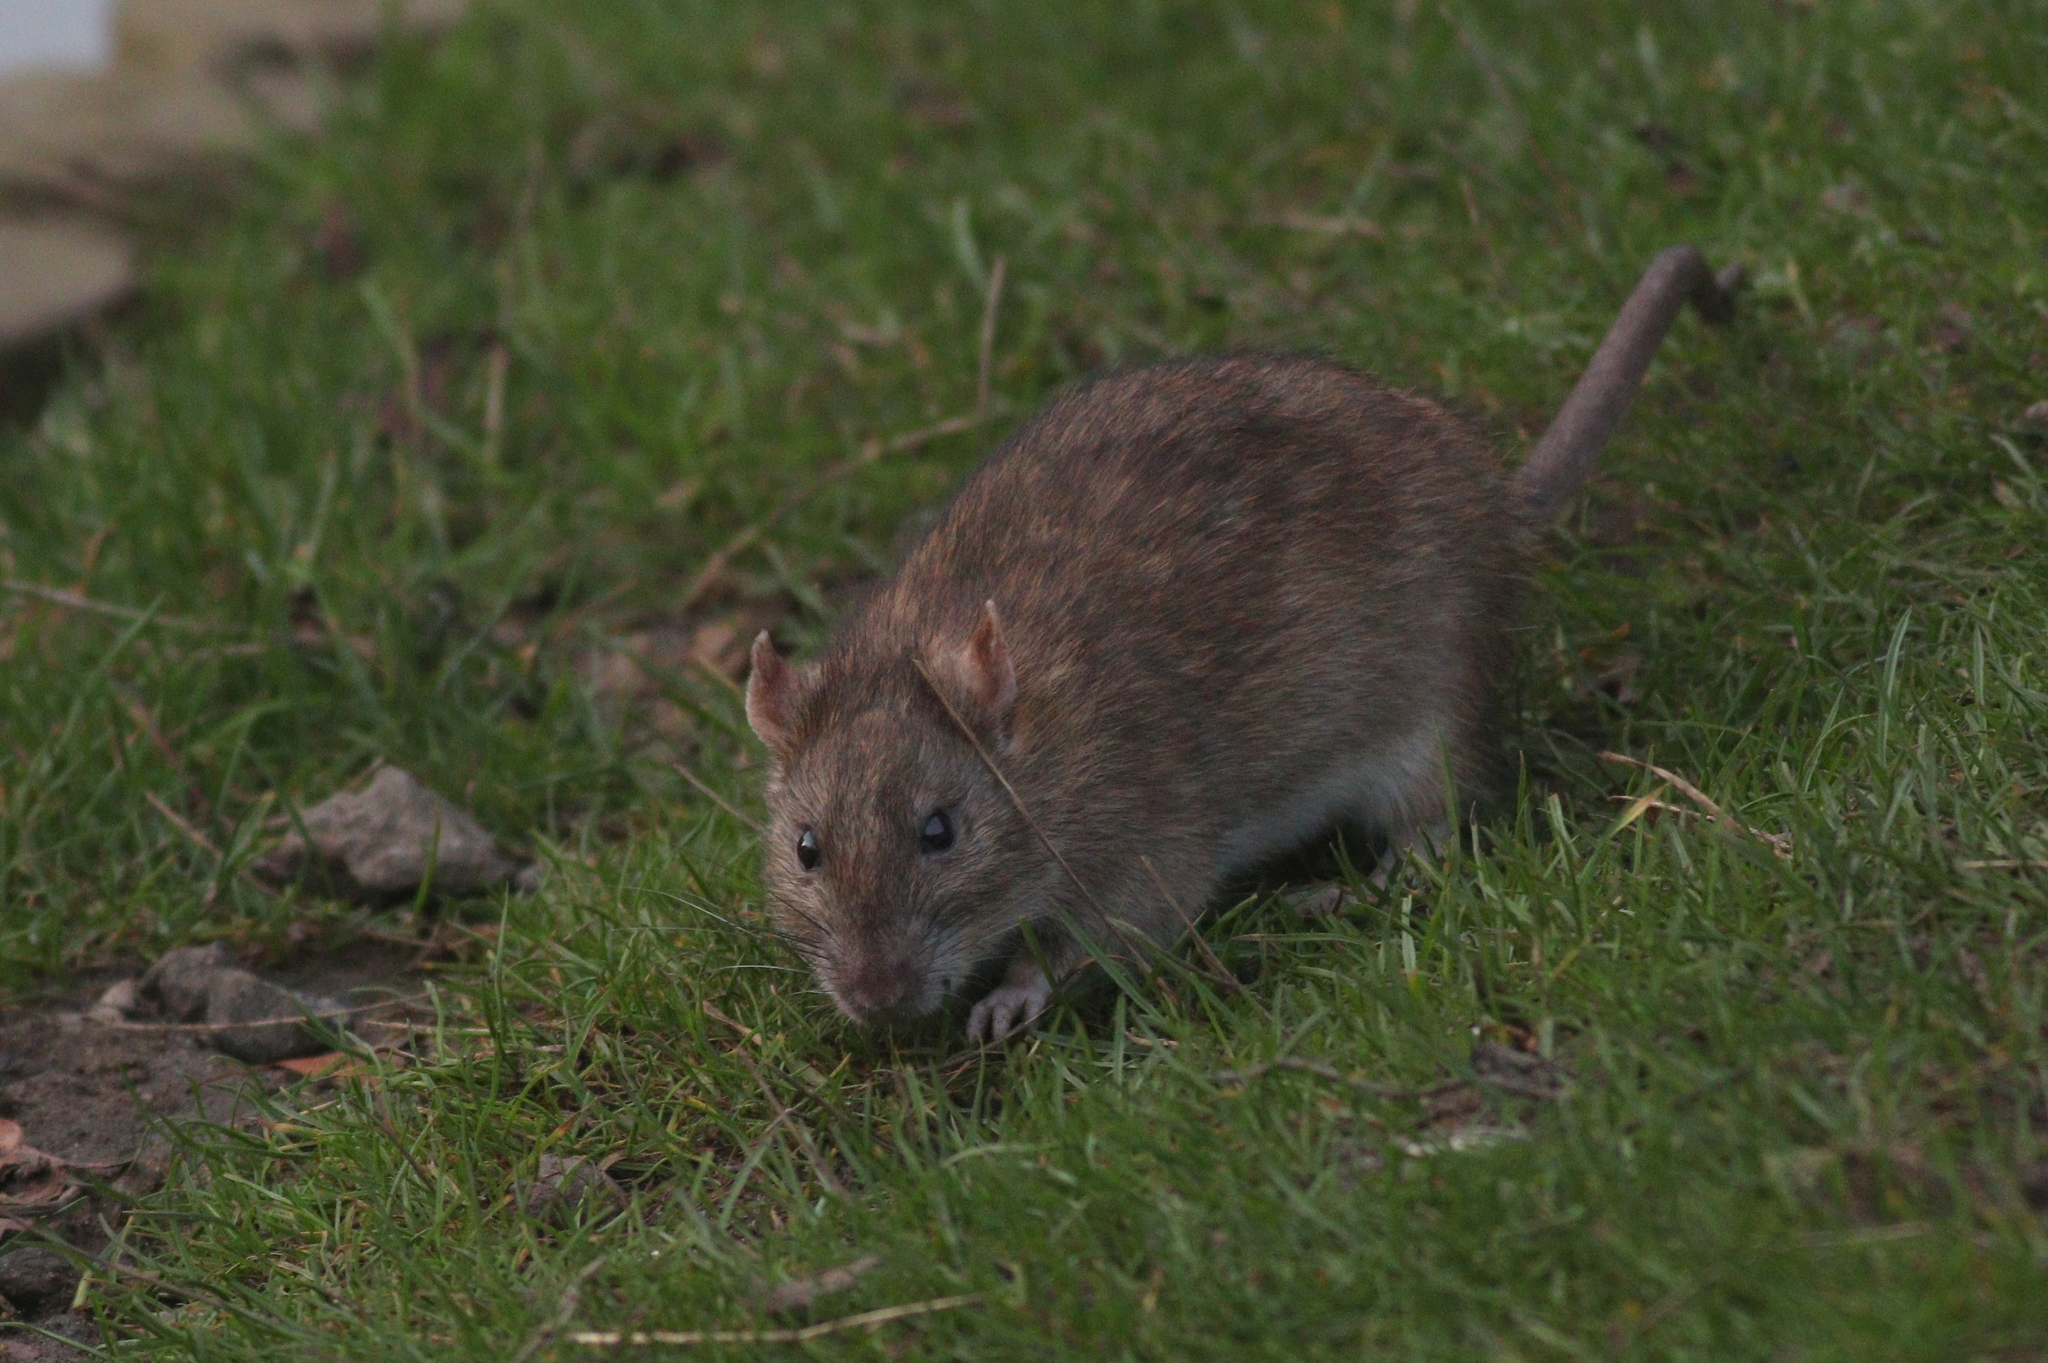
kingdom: Animalia
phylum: Chordata
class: Mammalia
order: Rodentia
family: Muridae
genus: Rattus
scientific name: Rattus norvegicus
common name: Brown rat
